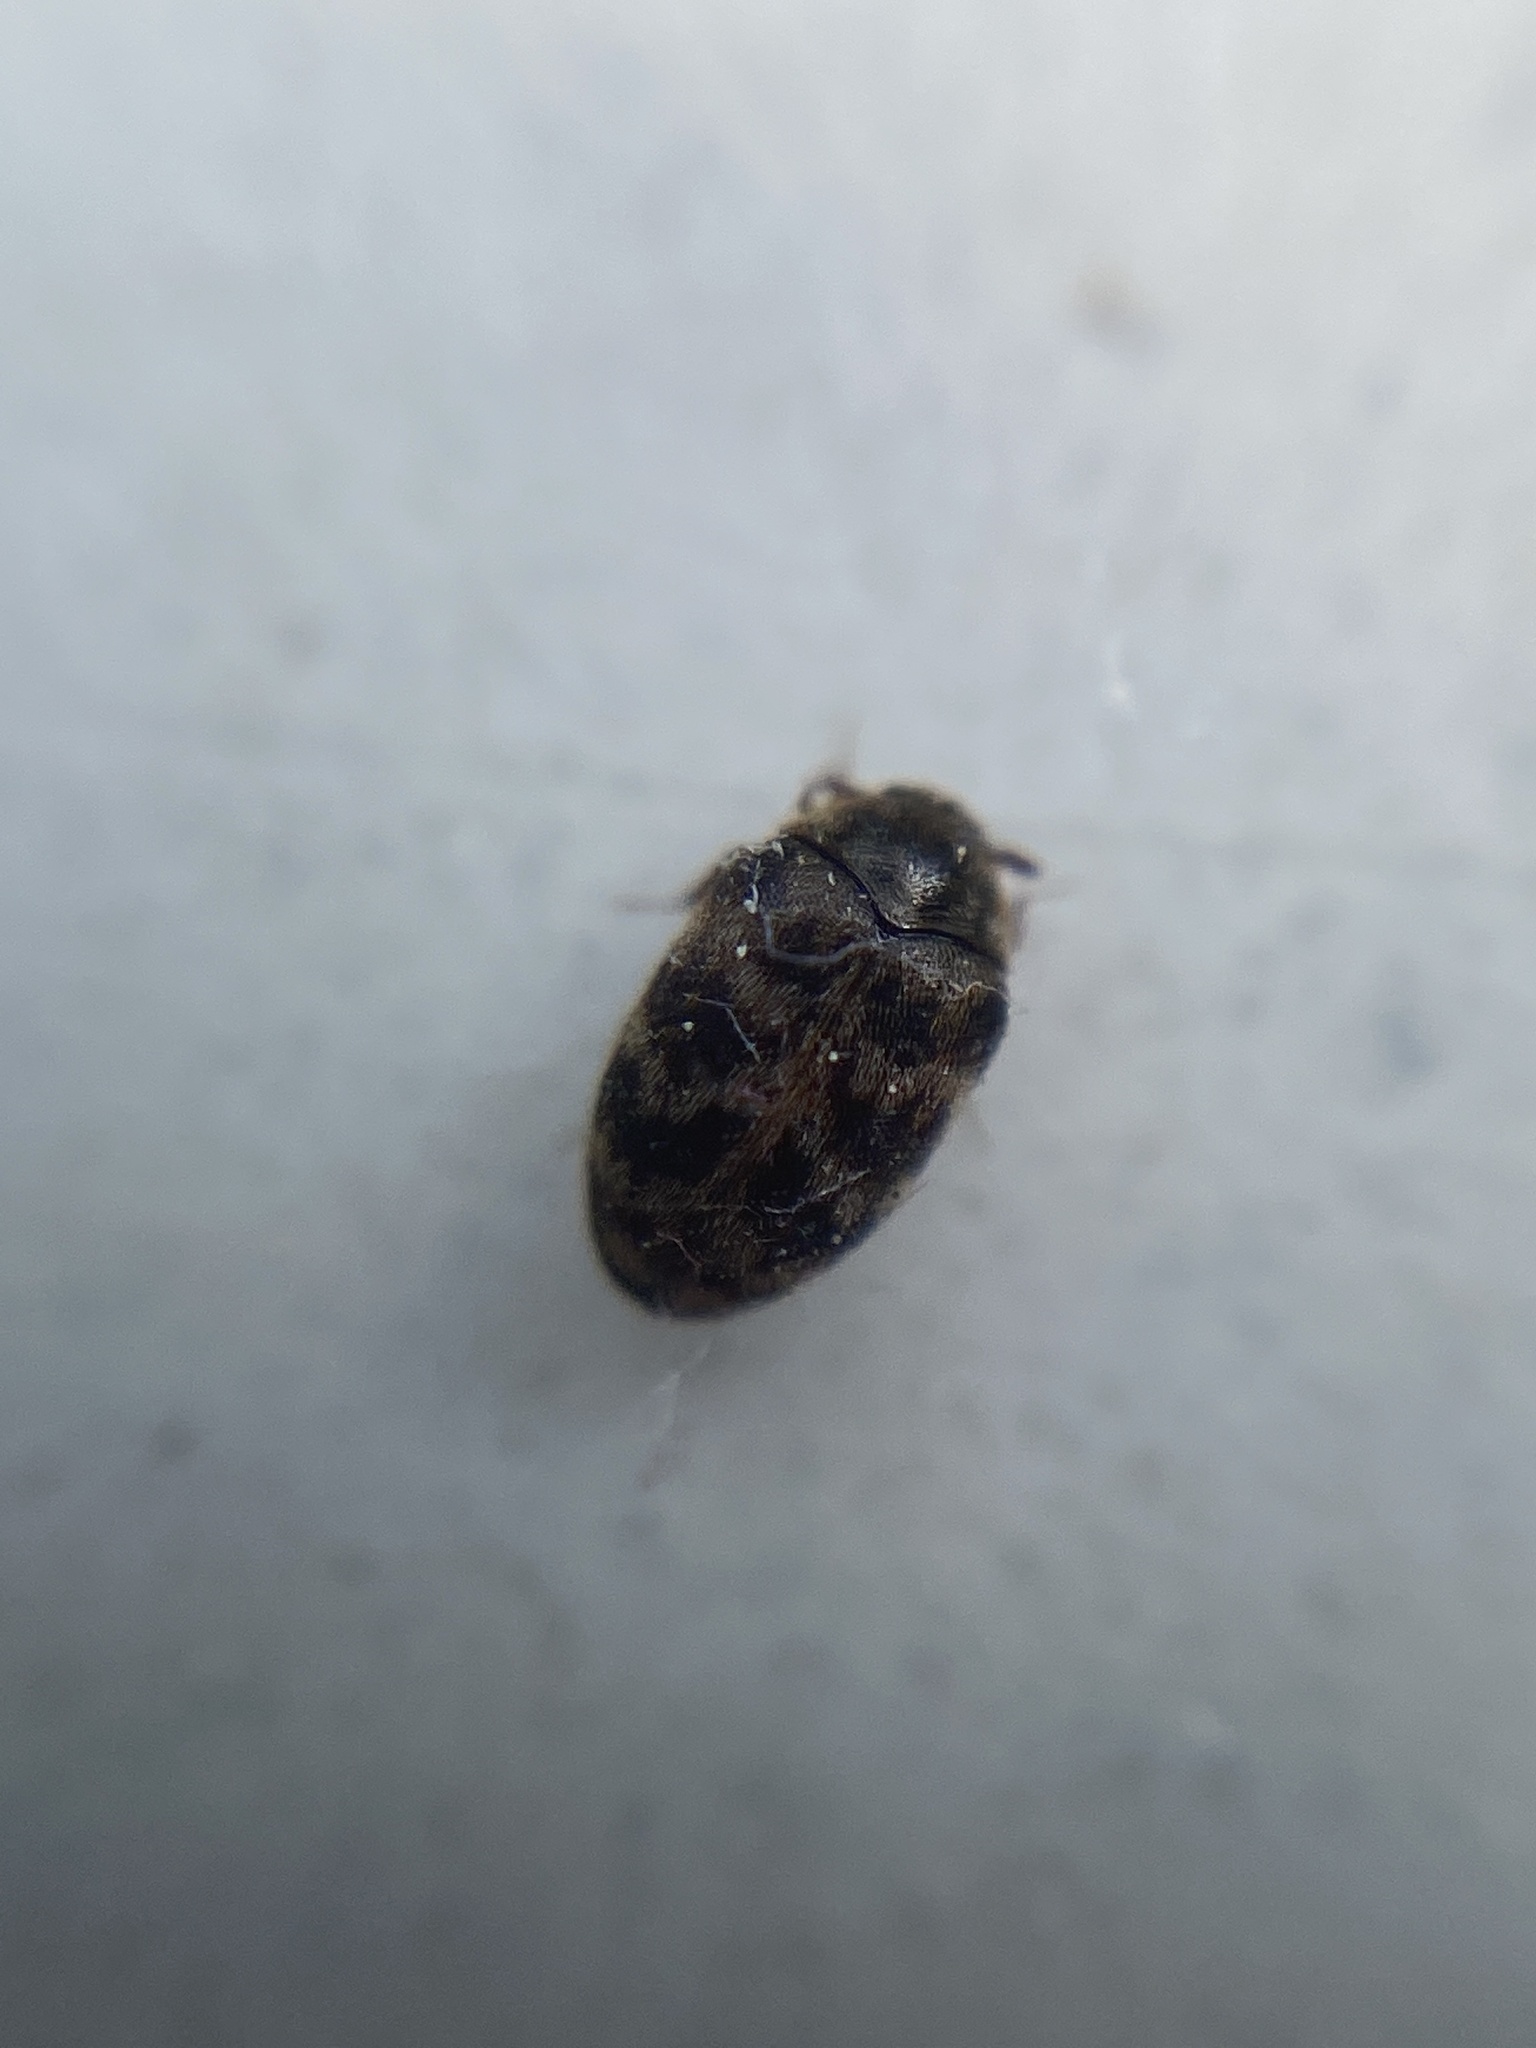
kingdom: Animalia
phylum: Arthropoda
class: Insecta
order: Coleoptera
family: Dermestidae
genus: Anthrenocerus
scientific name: Anthrenocerus australis
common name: Australian carpet beetle
